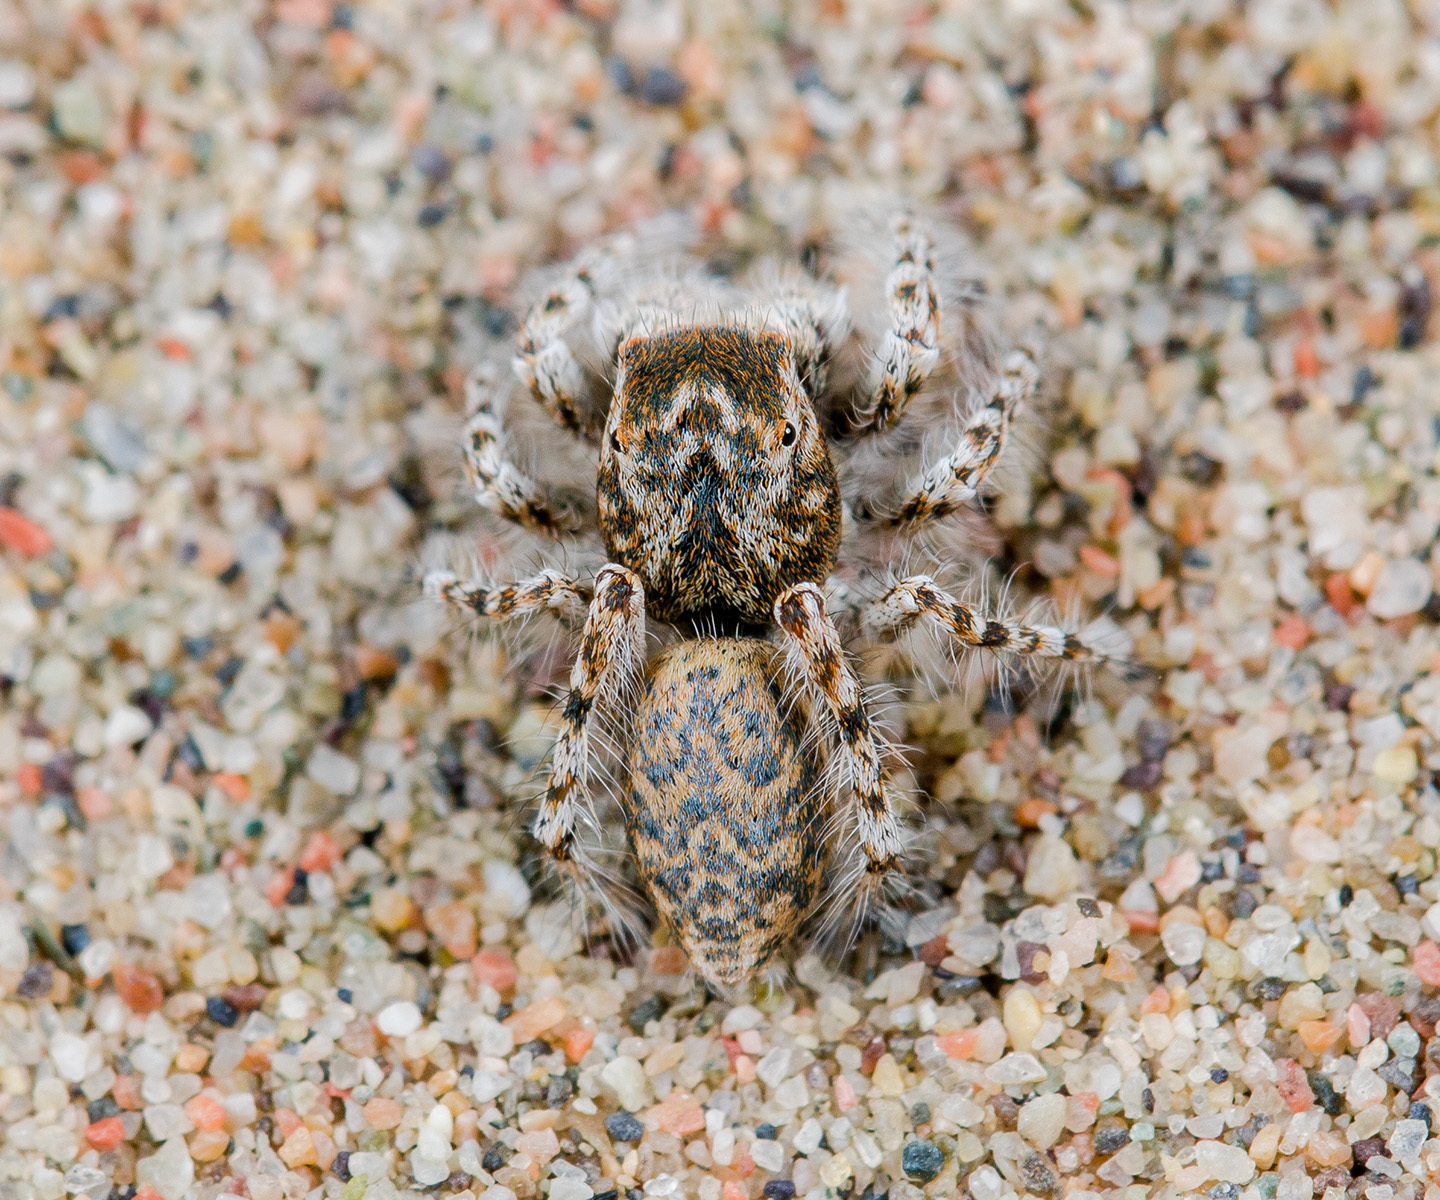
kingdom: Animalia
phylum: Arthropoda
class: Arachnida
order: Araneae
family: Salticidae
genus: Yllenus
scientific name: Yllenus uiguricus
